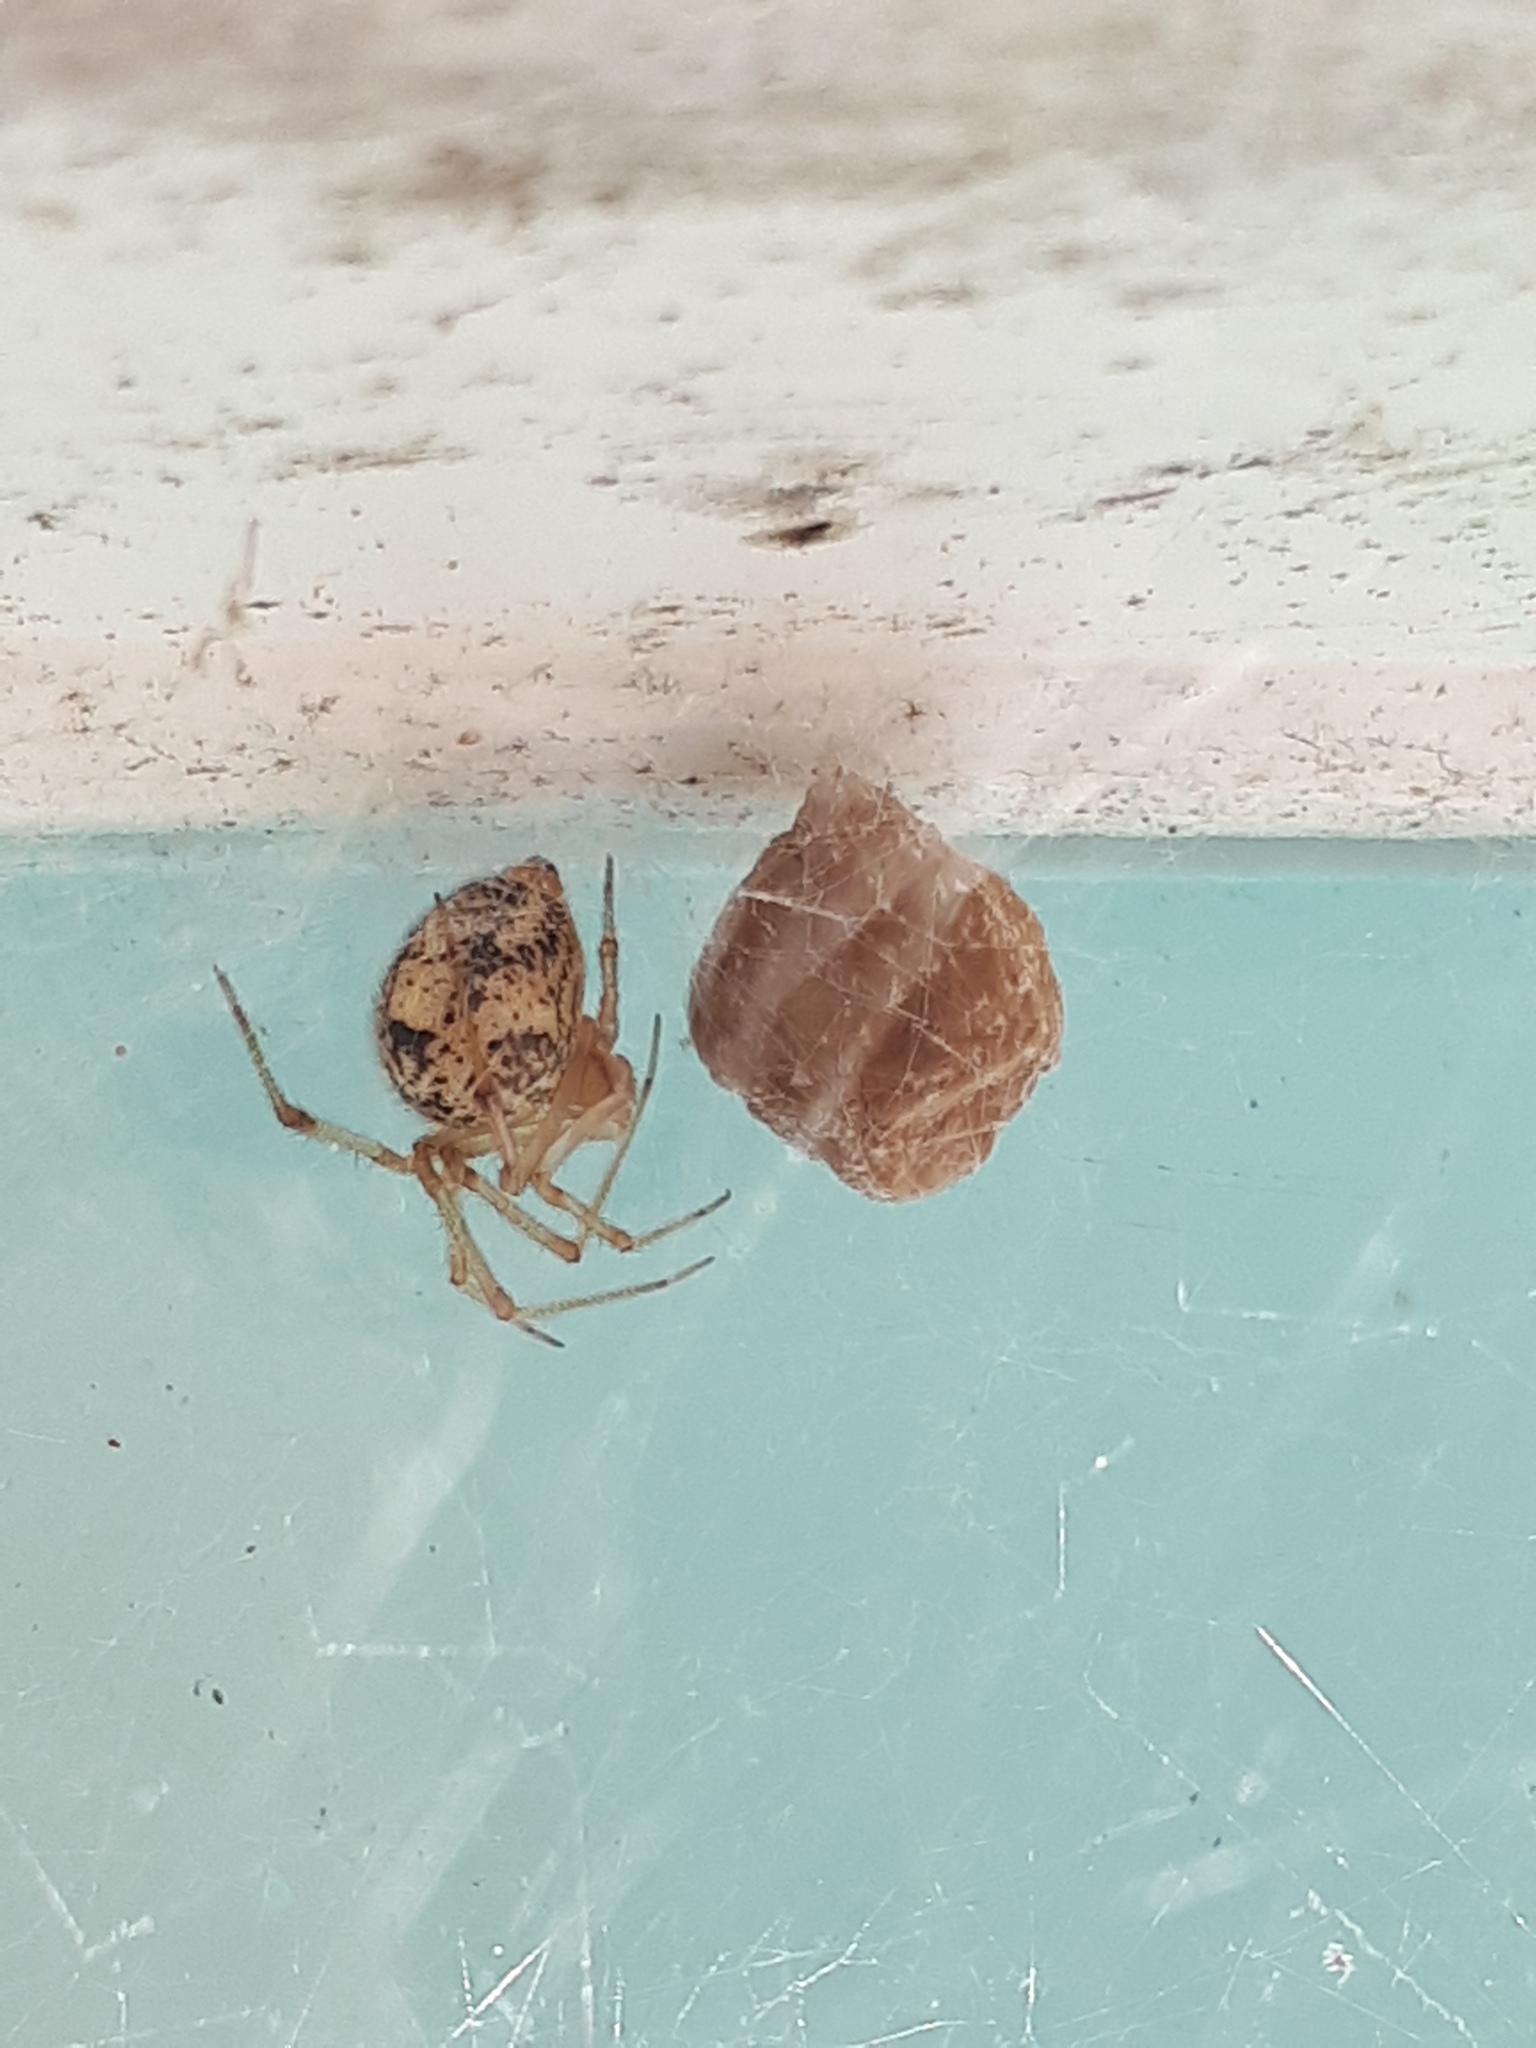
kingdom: Animalia
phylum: Arthropoda
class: Arachnida
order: Araneae
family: Theridiidae
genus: Parasteatoda
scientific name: Parasteatoda tepidariorum
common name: Common house spider
